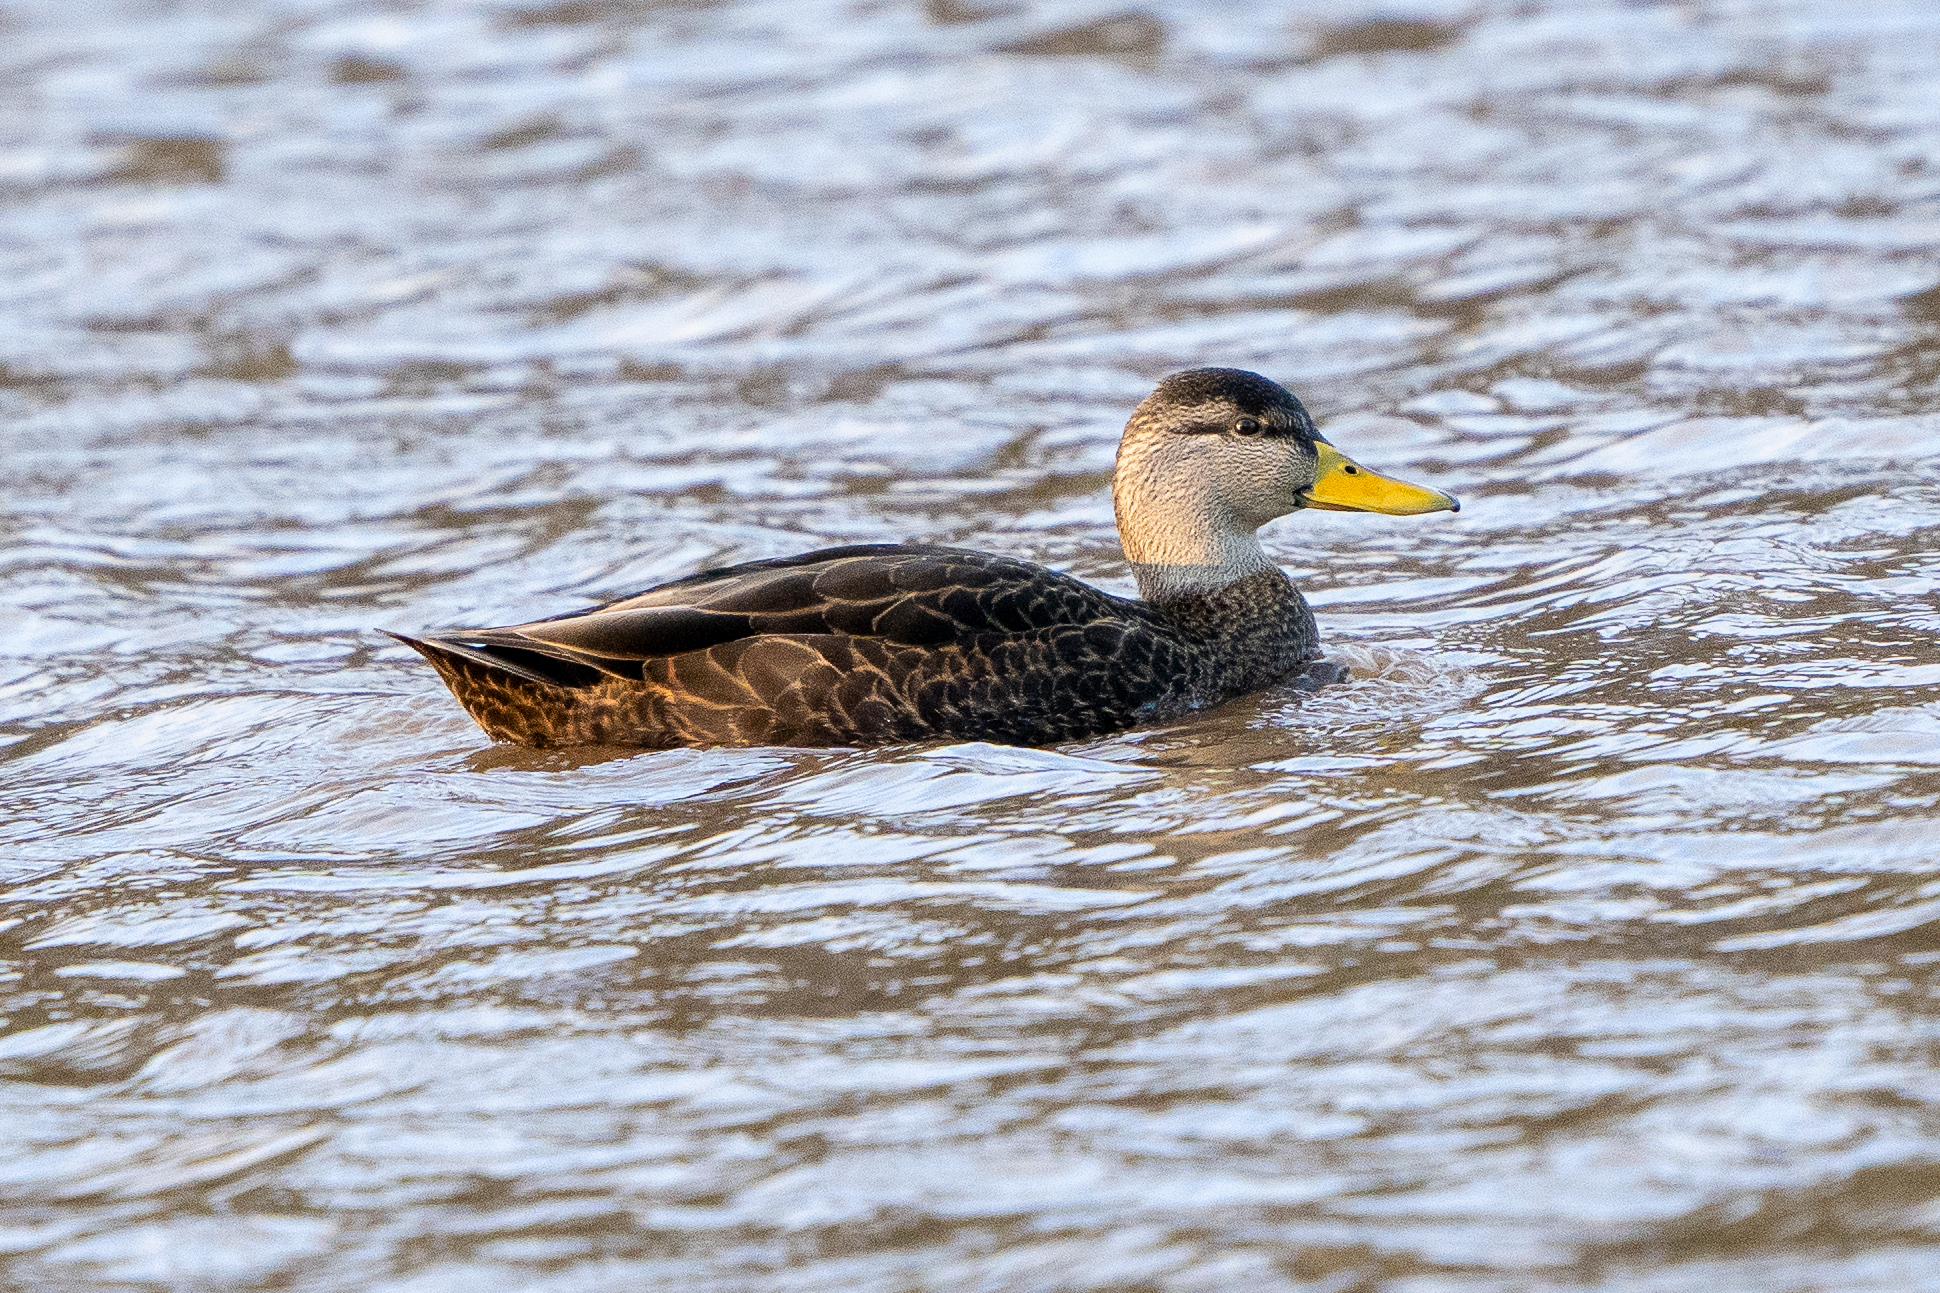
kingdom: Animalia
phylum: Chordata
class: Aves
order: Anseriformes
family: Anatidae
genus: Anas
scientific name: Anas rubripes
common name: American black duck
